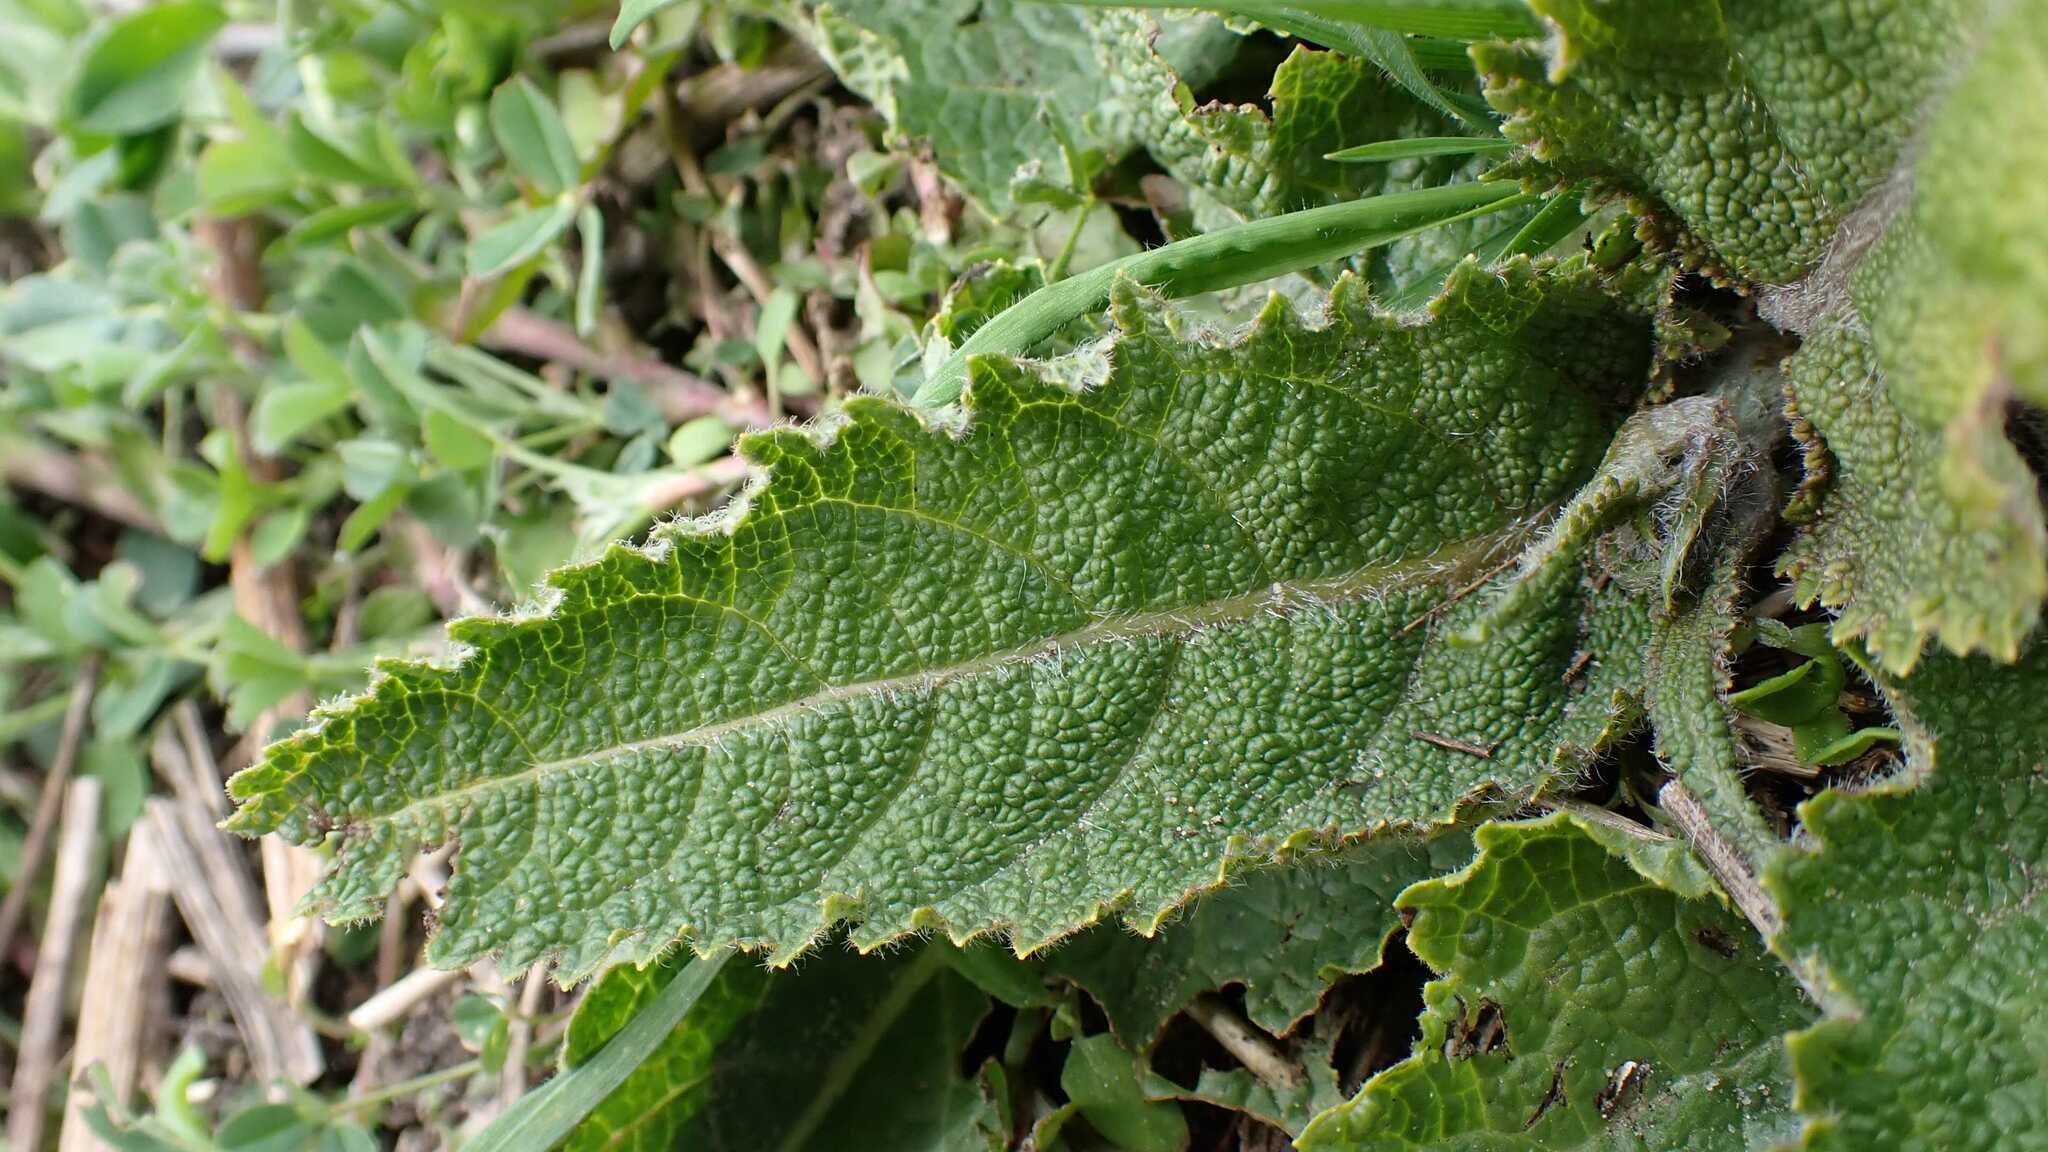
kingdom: Plantae
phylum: Tracheophyta
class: Magnoliopsida
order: Lamiales
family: Lamiaceae
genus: Salvia
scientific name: Salvia pratensis
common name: Meadow sage
